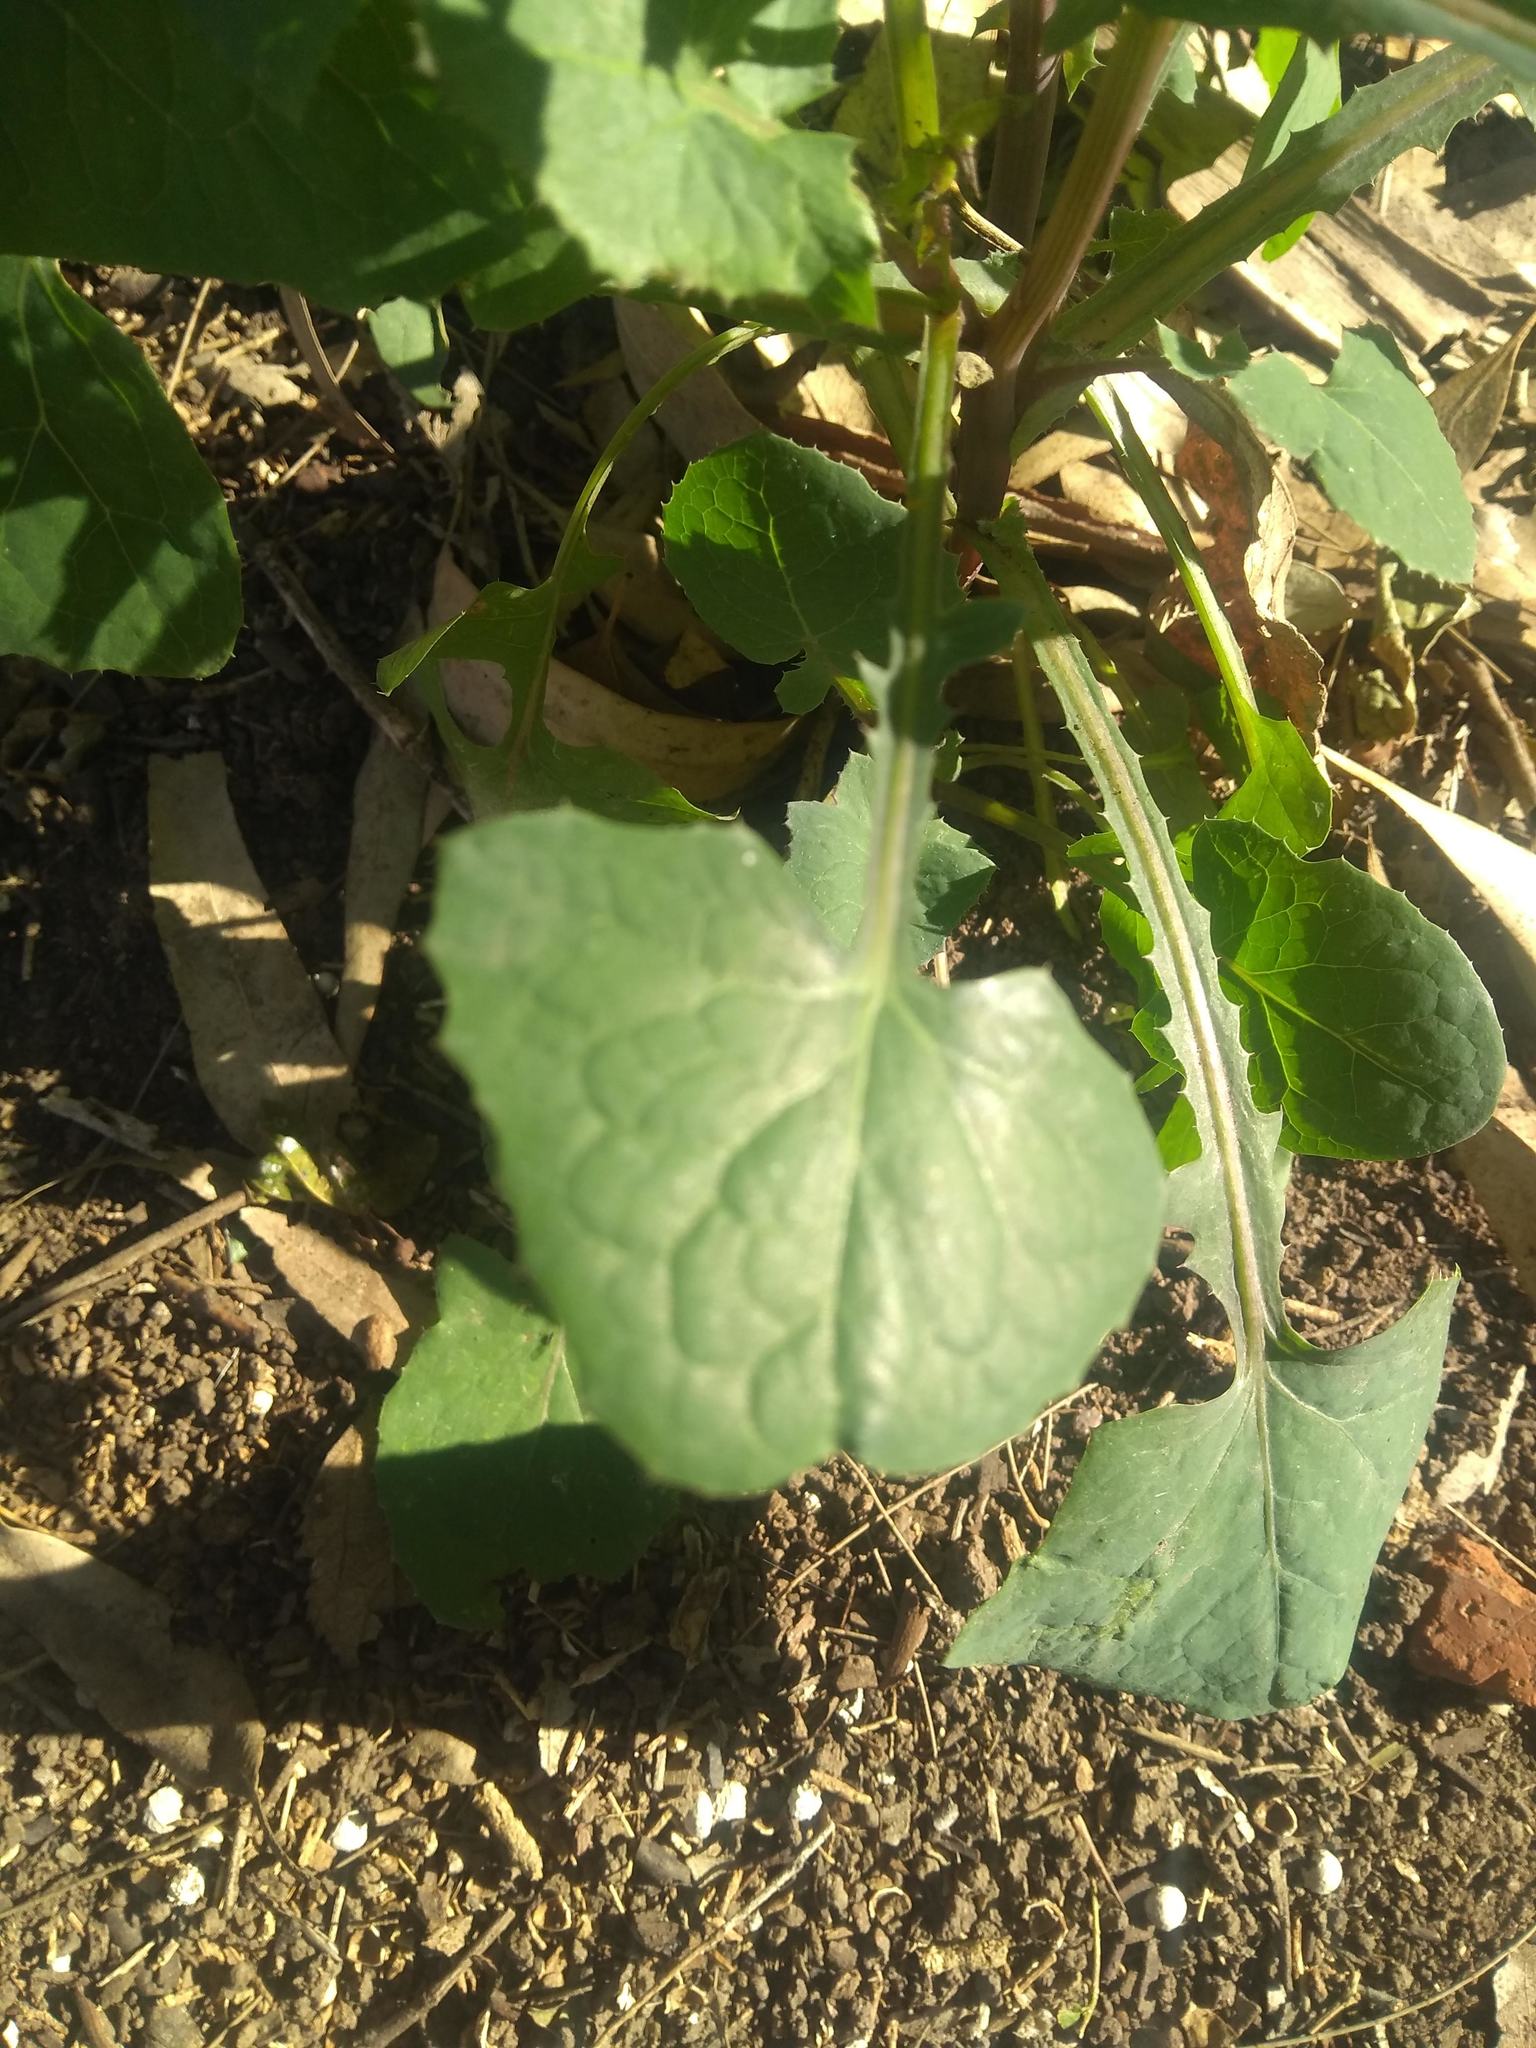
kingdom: Plantae
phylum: Tracheophyta
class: Magnoliopsida
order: Asterales
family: Asteraceae
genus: Sonchus
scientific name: Sonchus oleraceus
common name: Common sowthistle
